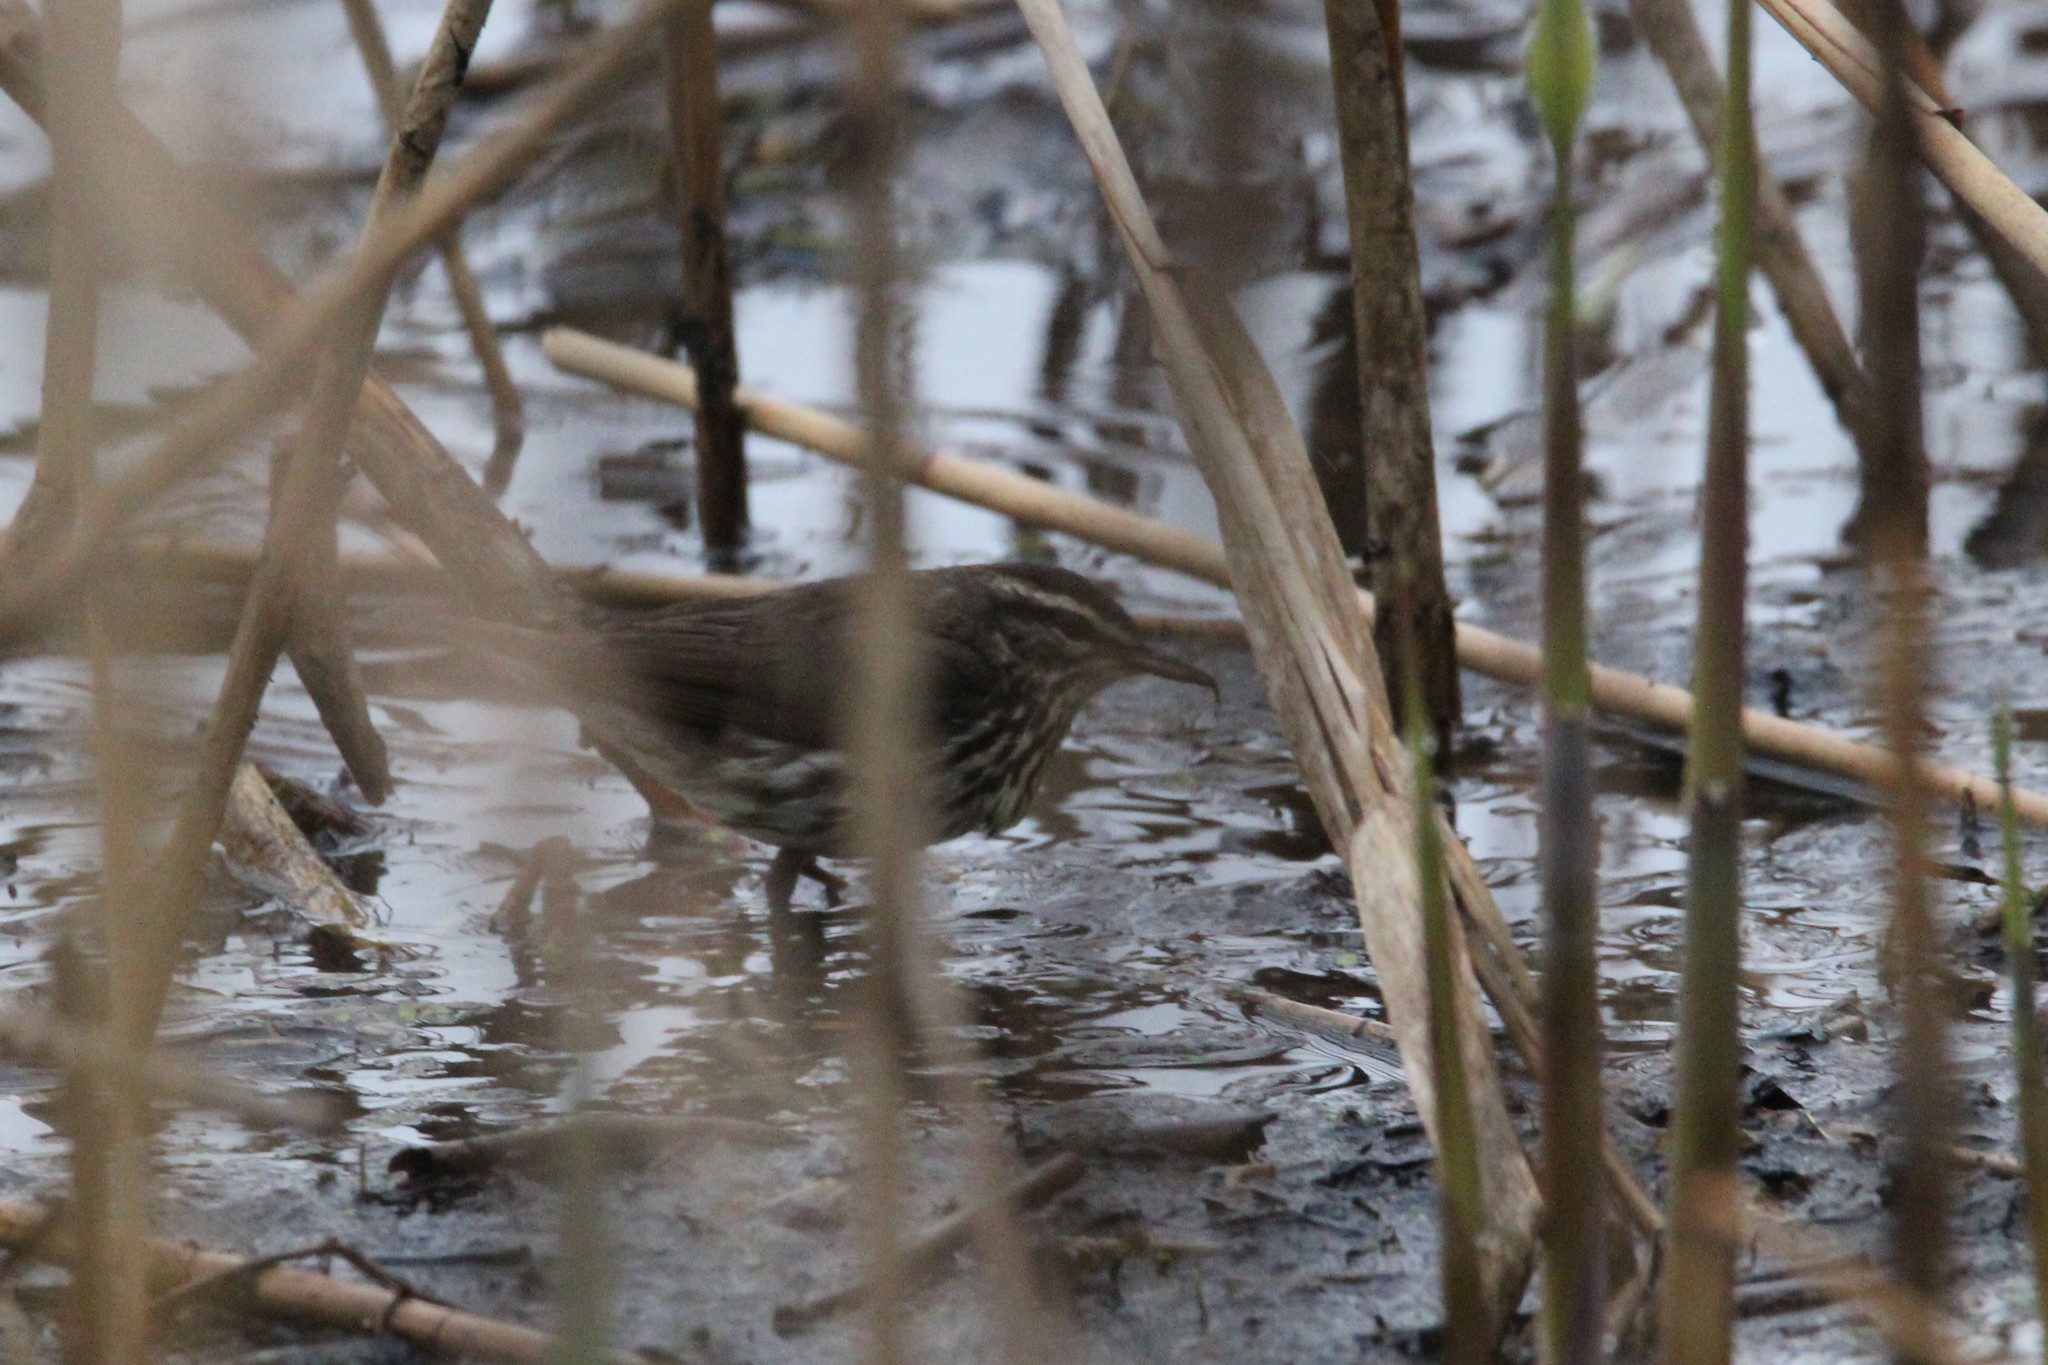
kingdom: Animalia
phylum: Chordata
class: Aves
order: Passeriformes
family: Parulidae
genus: Parkesia
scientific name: Parkesia noveboracensis
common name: Northern waterthrush
